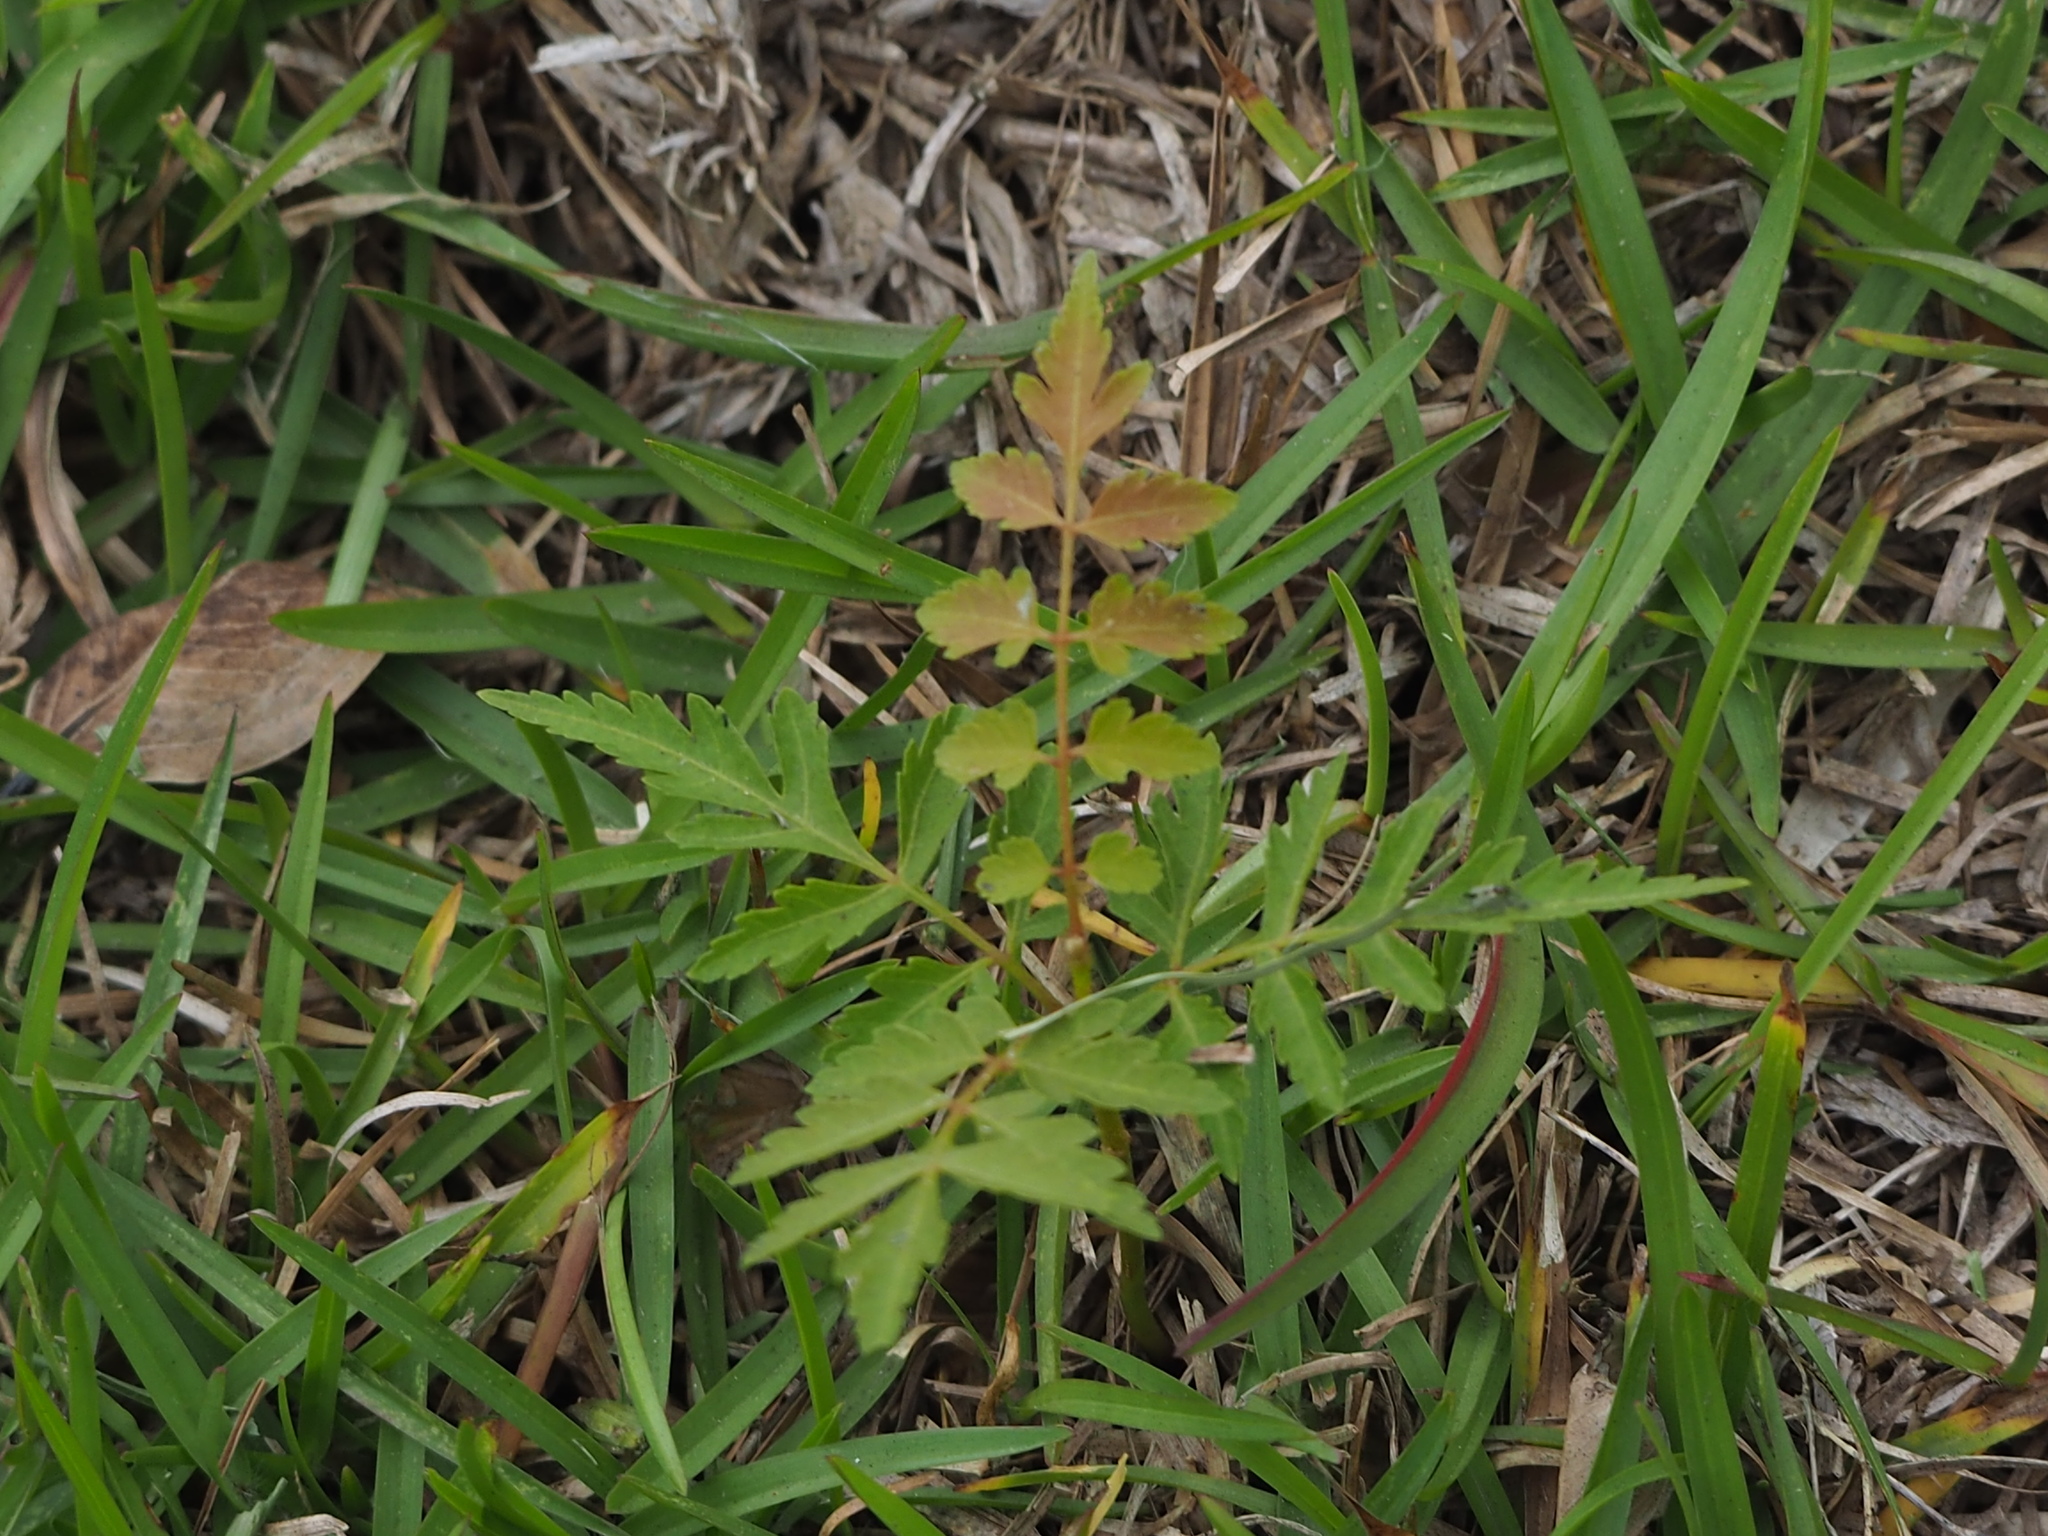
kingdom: Plantae
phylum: Tracheophyta
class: Magnoliopsida
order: Sapindales
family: Sapindaceae
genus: Koelreuteria
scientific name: Koelreuteria elegans
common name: Chinese flame tree
